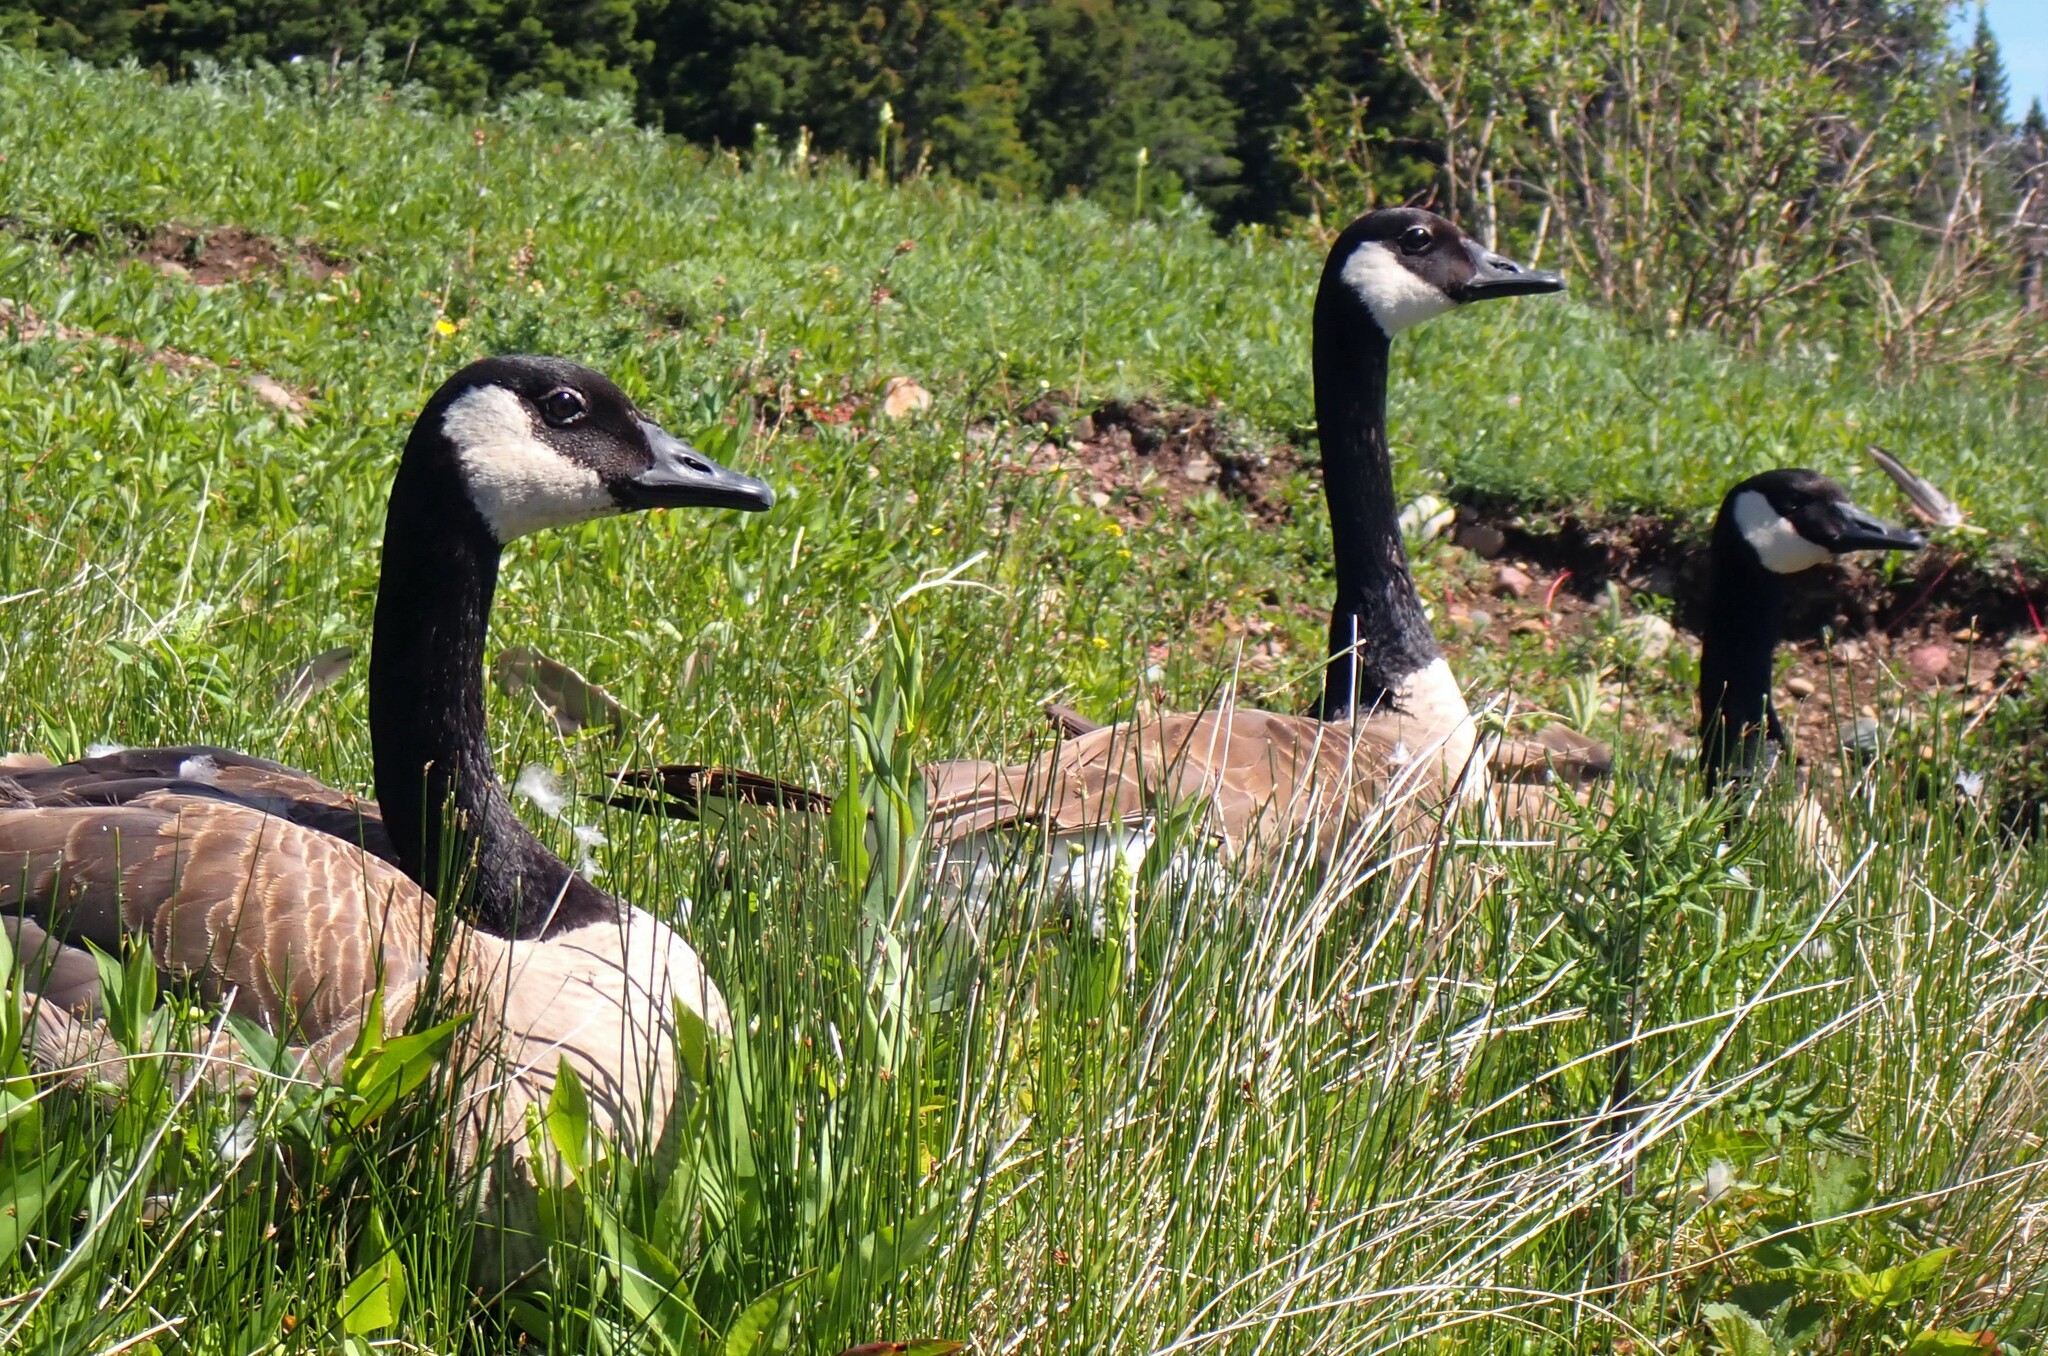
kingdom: Animalia
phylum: Chordata
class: Aves
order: Anseriformes
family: Anatidae
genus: Branta
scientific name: Branta canadensis
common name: Canada goose
